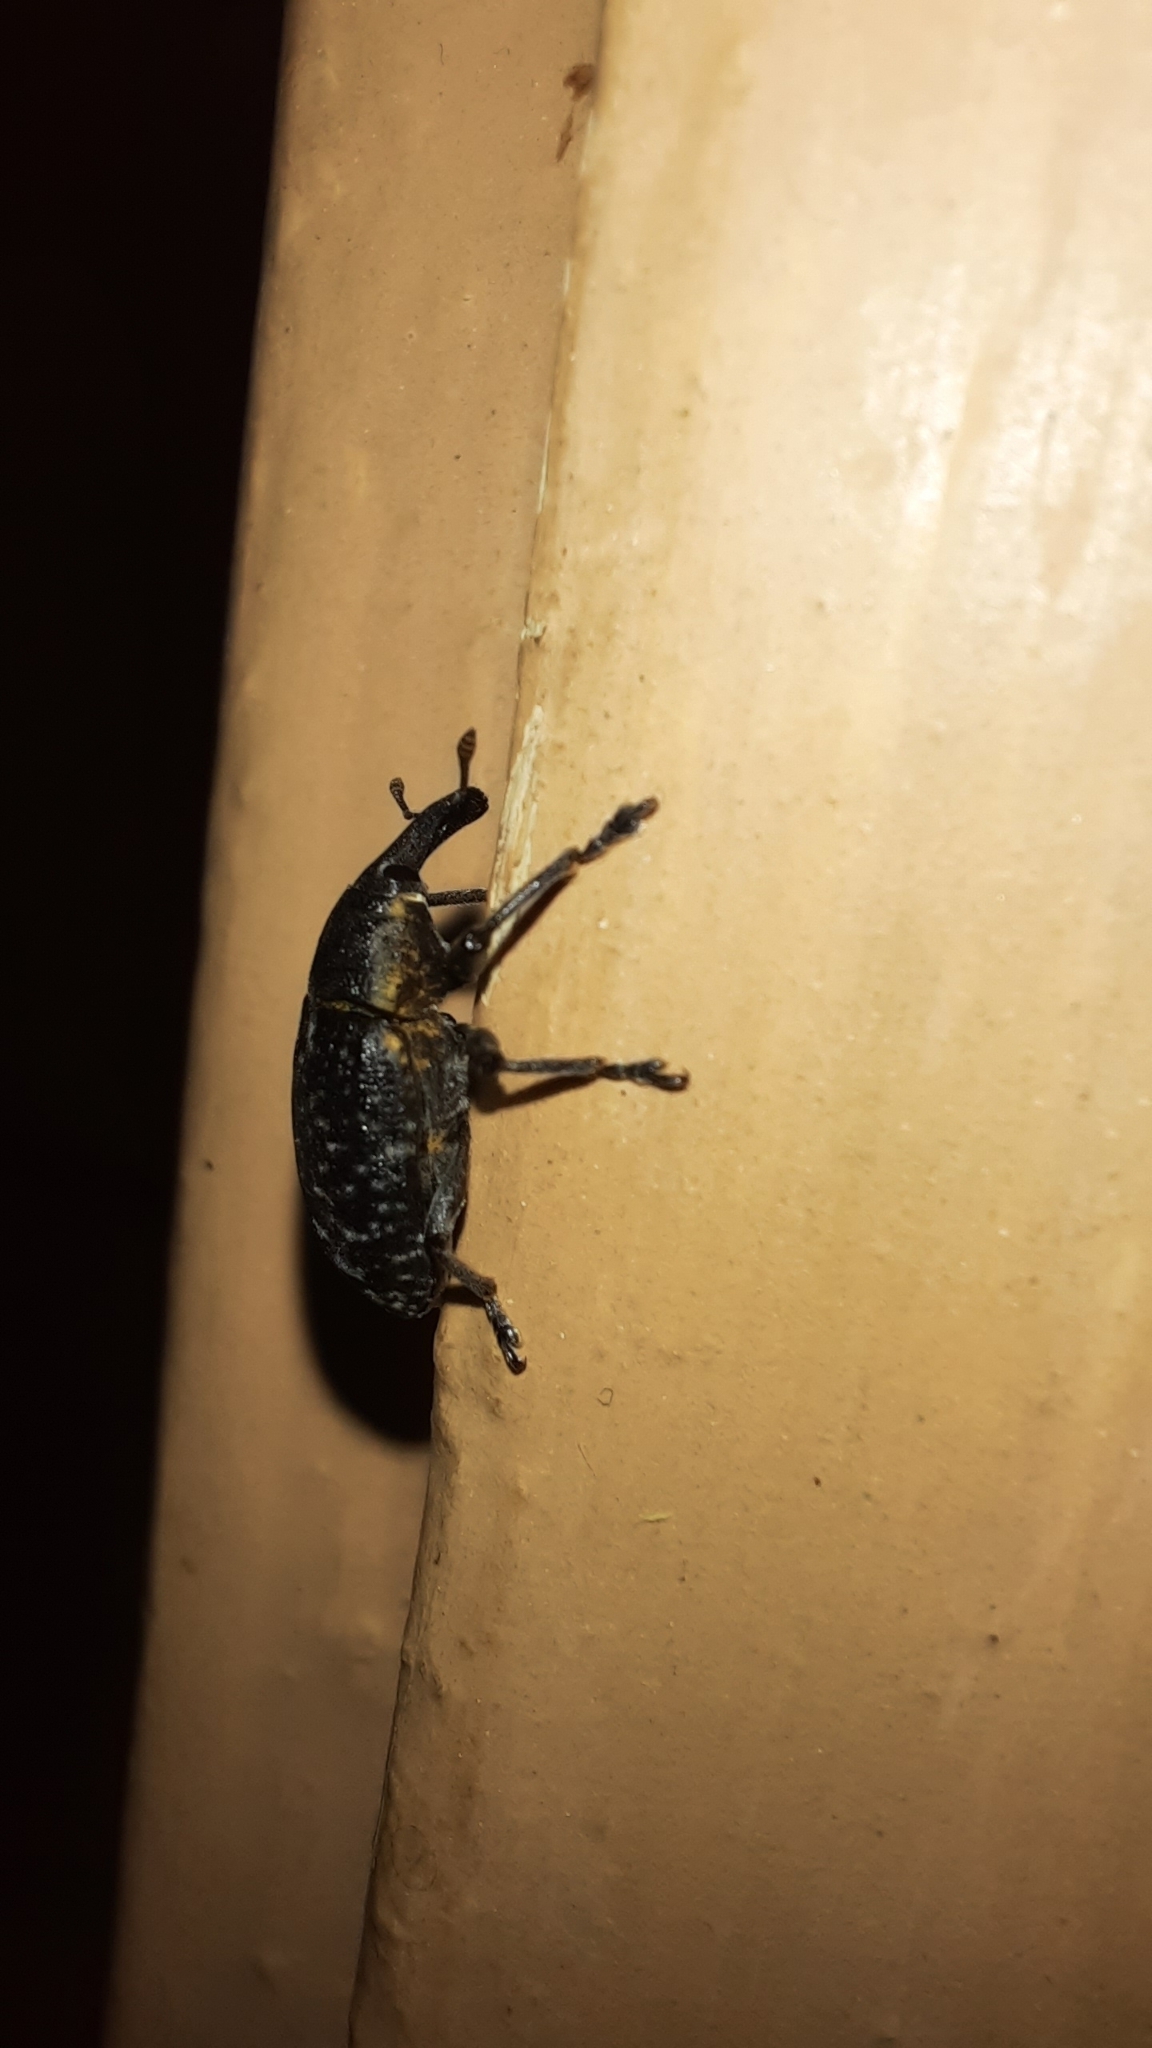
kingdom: Animalia
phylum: Arthropoda
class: Insecta
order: Coleoptera
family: Curculionidae
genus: Larinus
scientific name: Larinus sturnus
